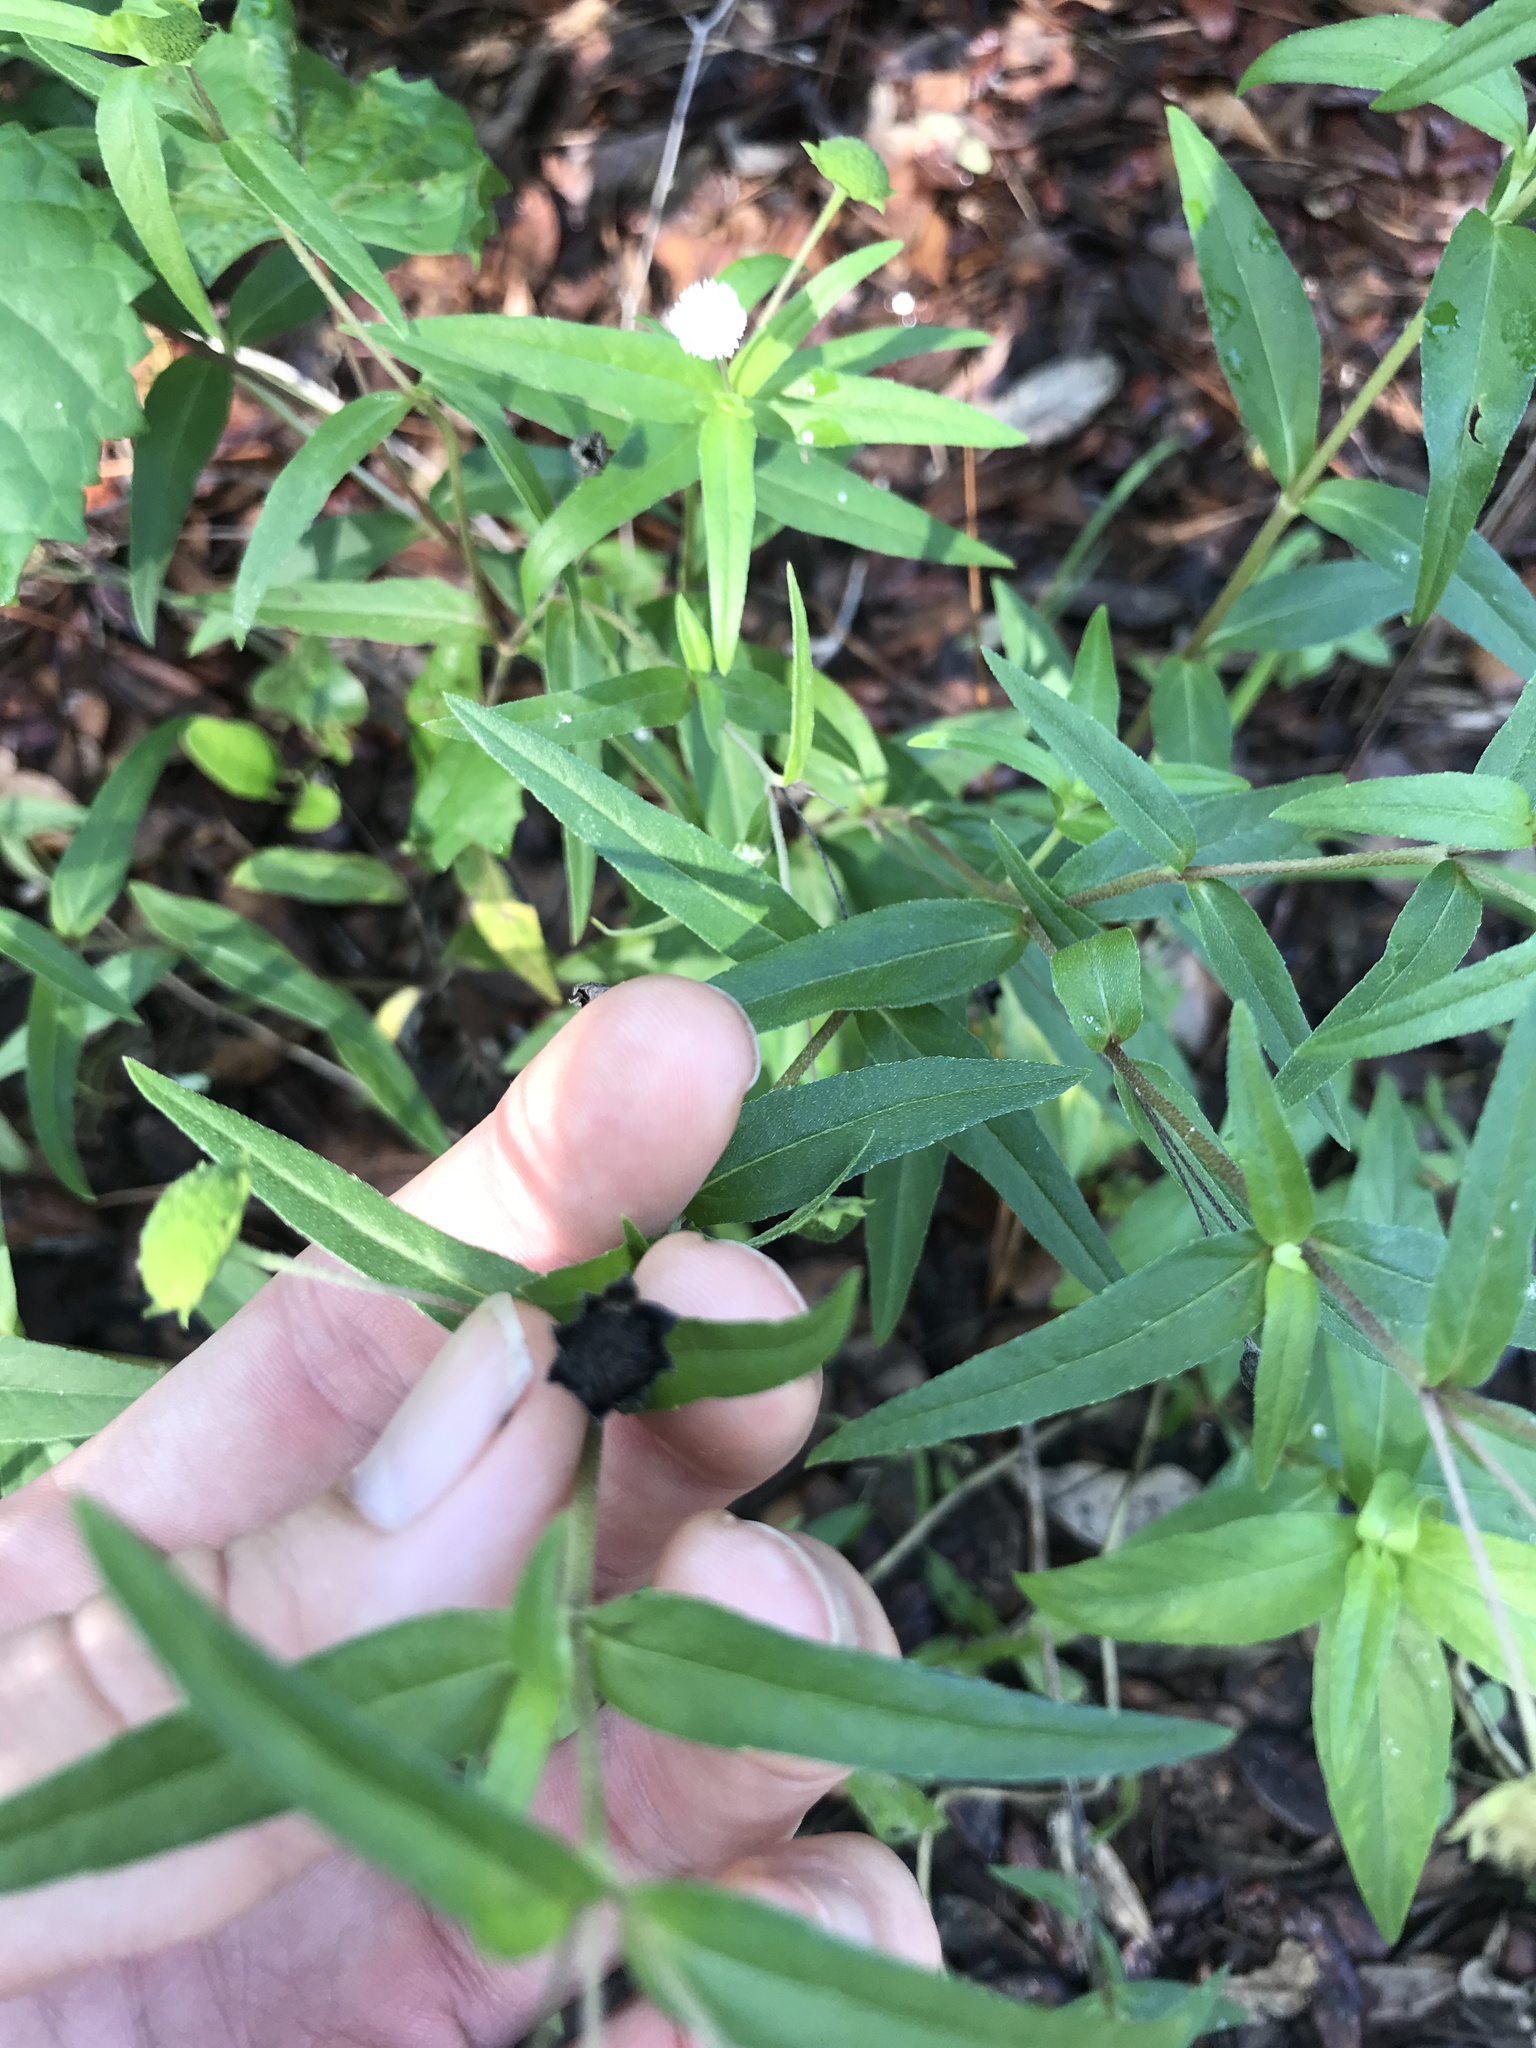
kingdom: Plantae
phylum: Tracheophyta
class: Magnoliopsida
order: Asterales
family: Asteraceae
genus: Eclipta
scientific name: Eclipta prostrata
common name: False daisy
